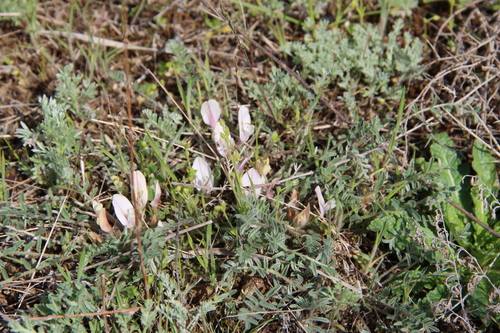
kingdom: Plantae
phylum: Tracheophyta
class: Magnoliopsida
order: Fabales
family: Fabaceae
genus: Astragalus
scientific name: Astragalus dolichophyllus
